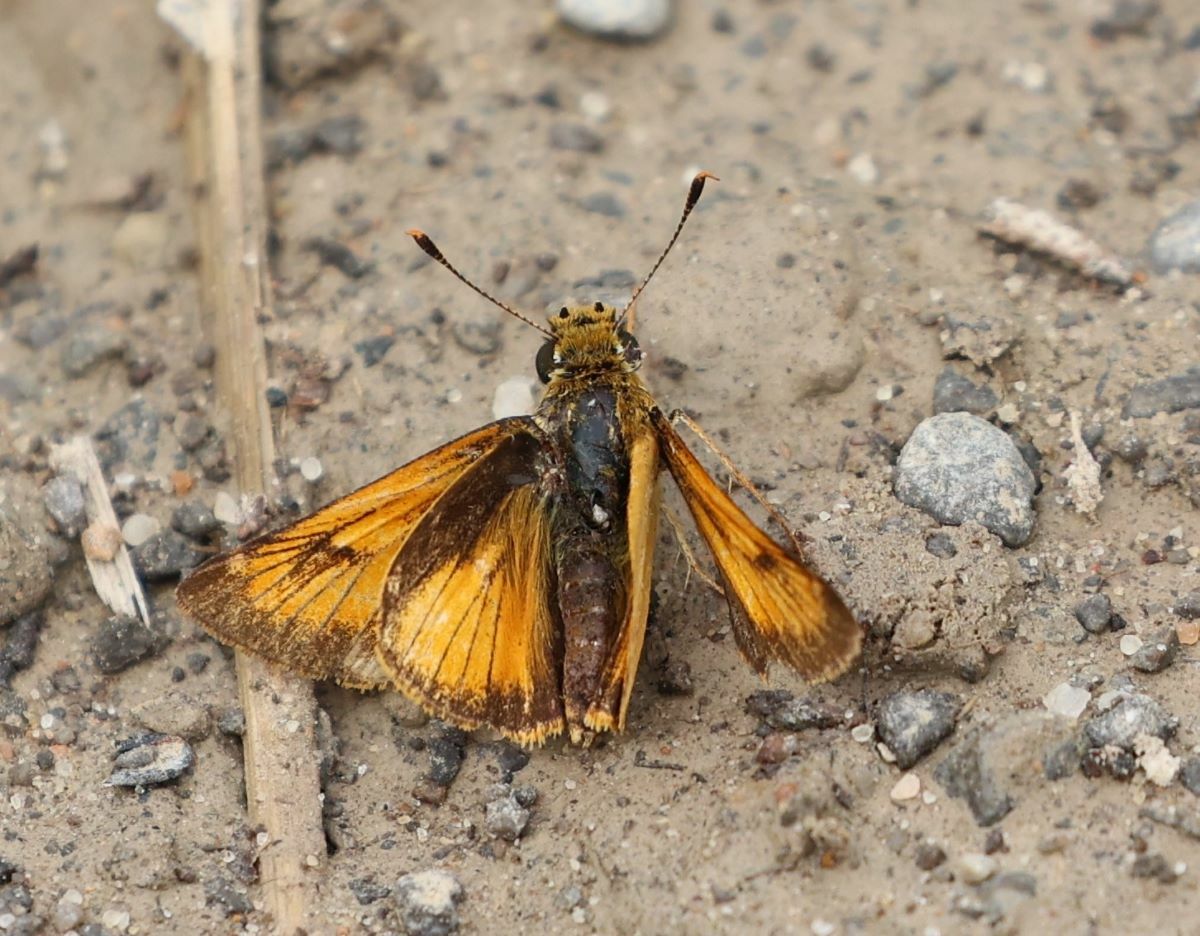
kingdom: Animalia
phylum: Arthropoda
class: Insecta
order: Lepidoptera
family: Hesperiidae
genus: Atrytone
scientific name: Atrytone delaware
